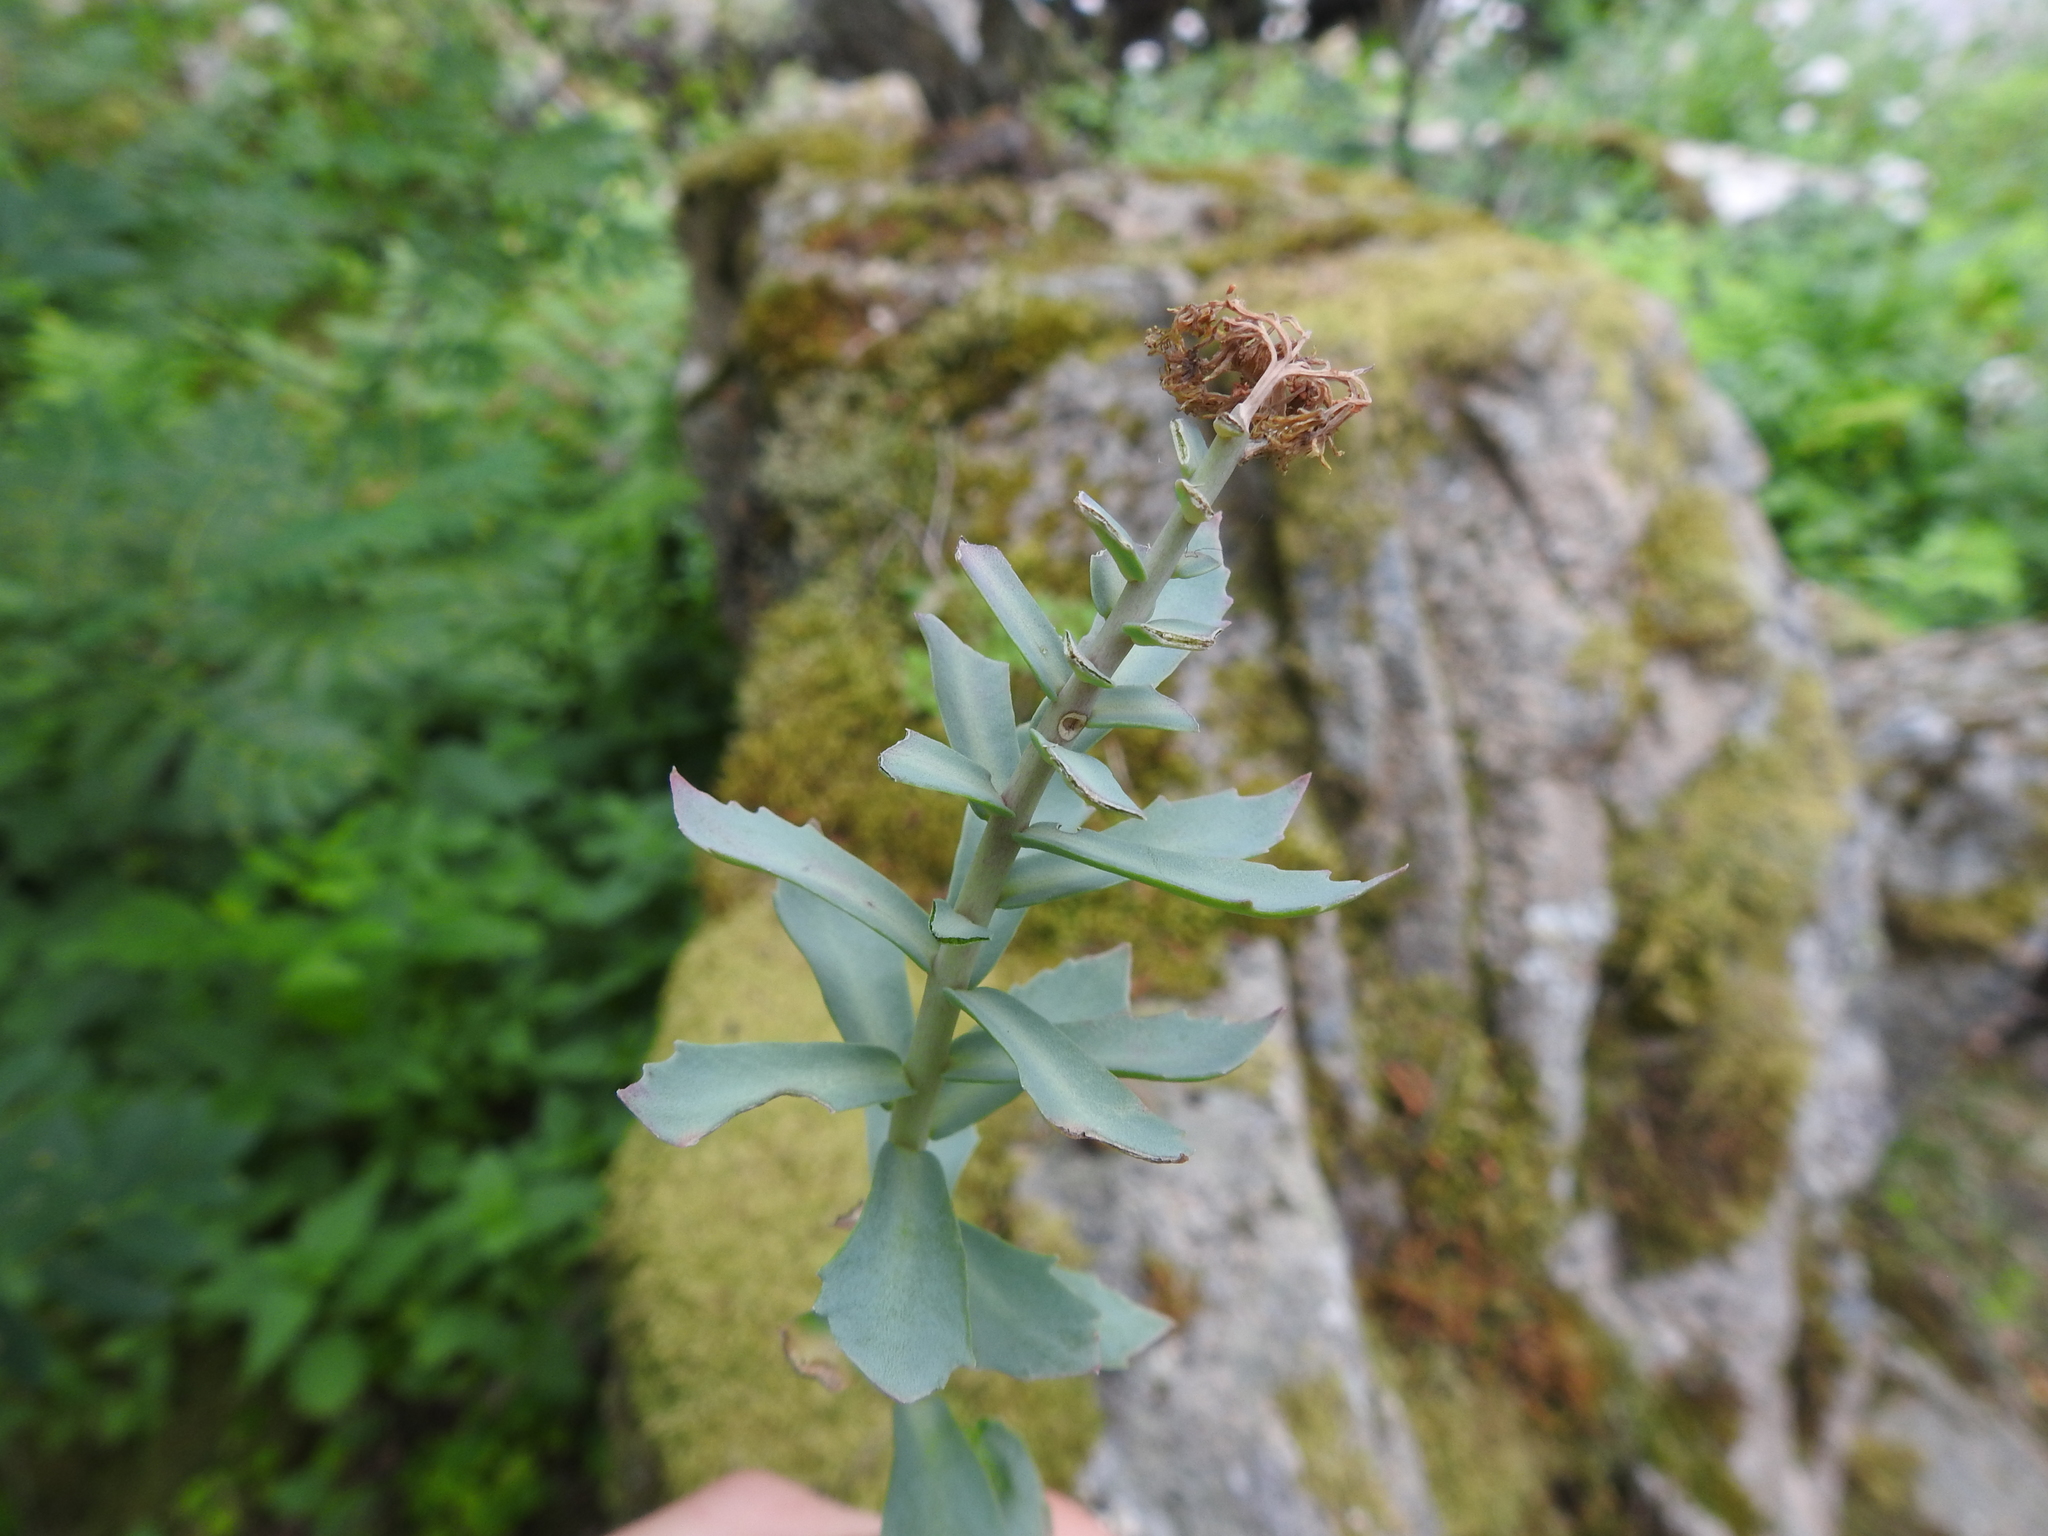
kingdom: Plantae
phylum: Tracheophyta
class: Magnoliopsida
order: Saxifragales
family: Crassulaceae
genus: Rhodiola
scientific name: Rhodiola rosea
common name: Roseroot
